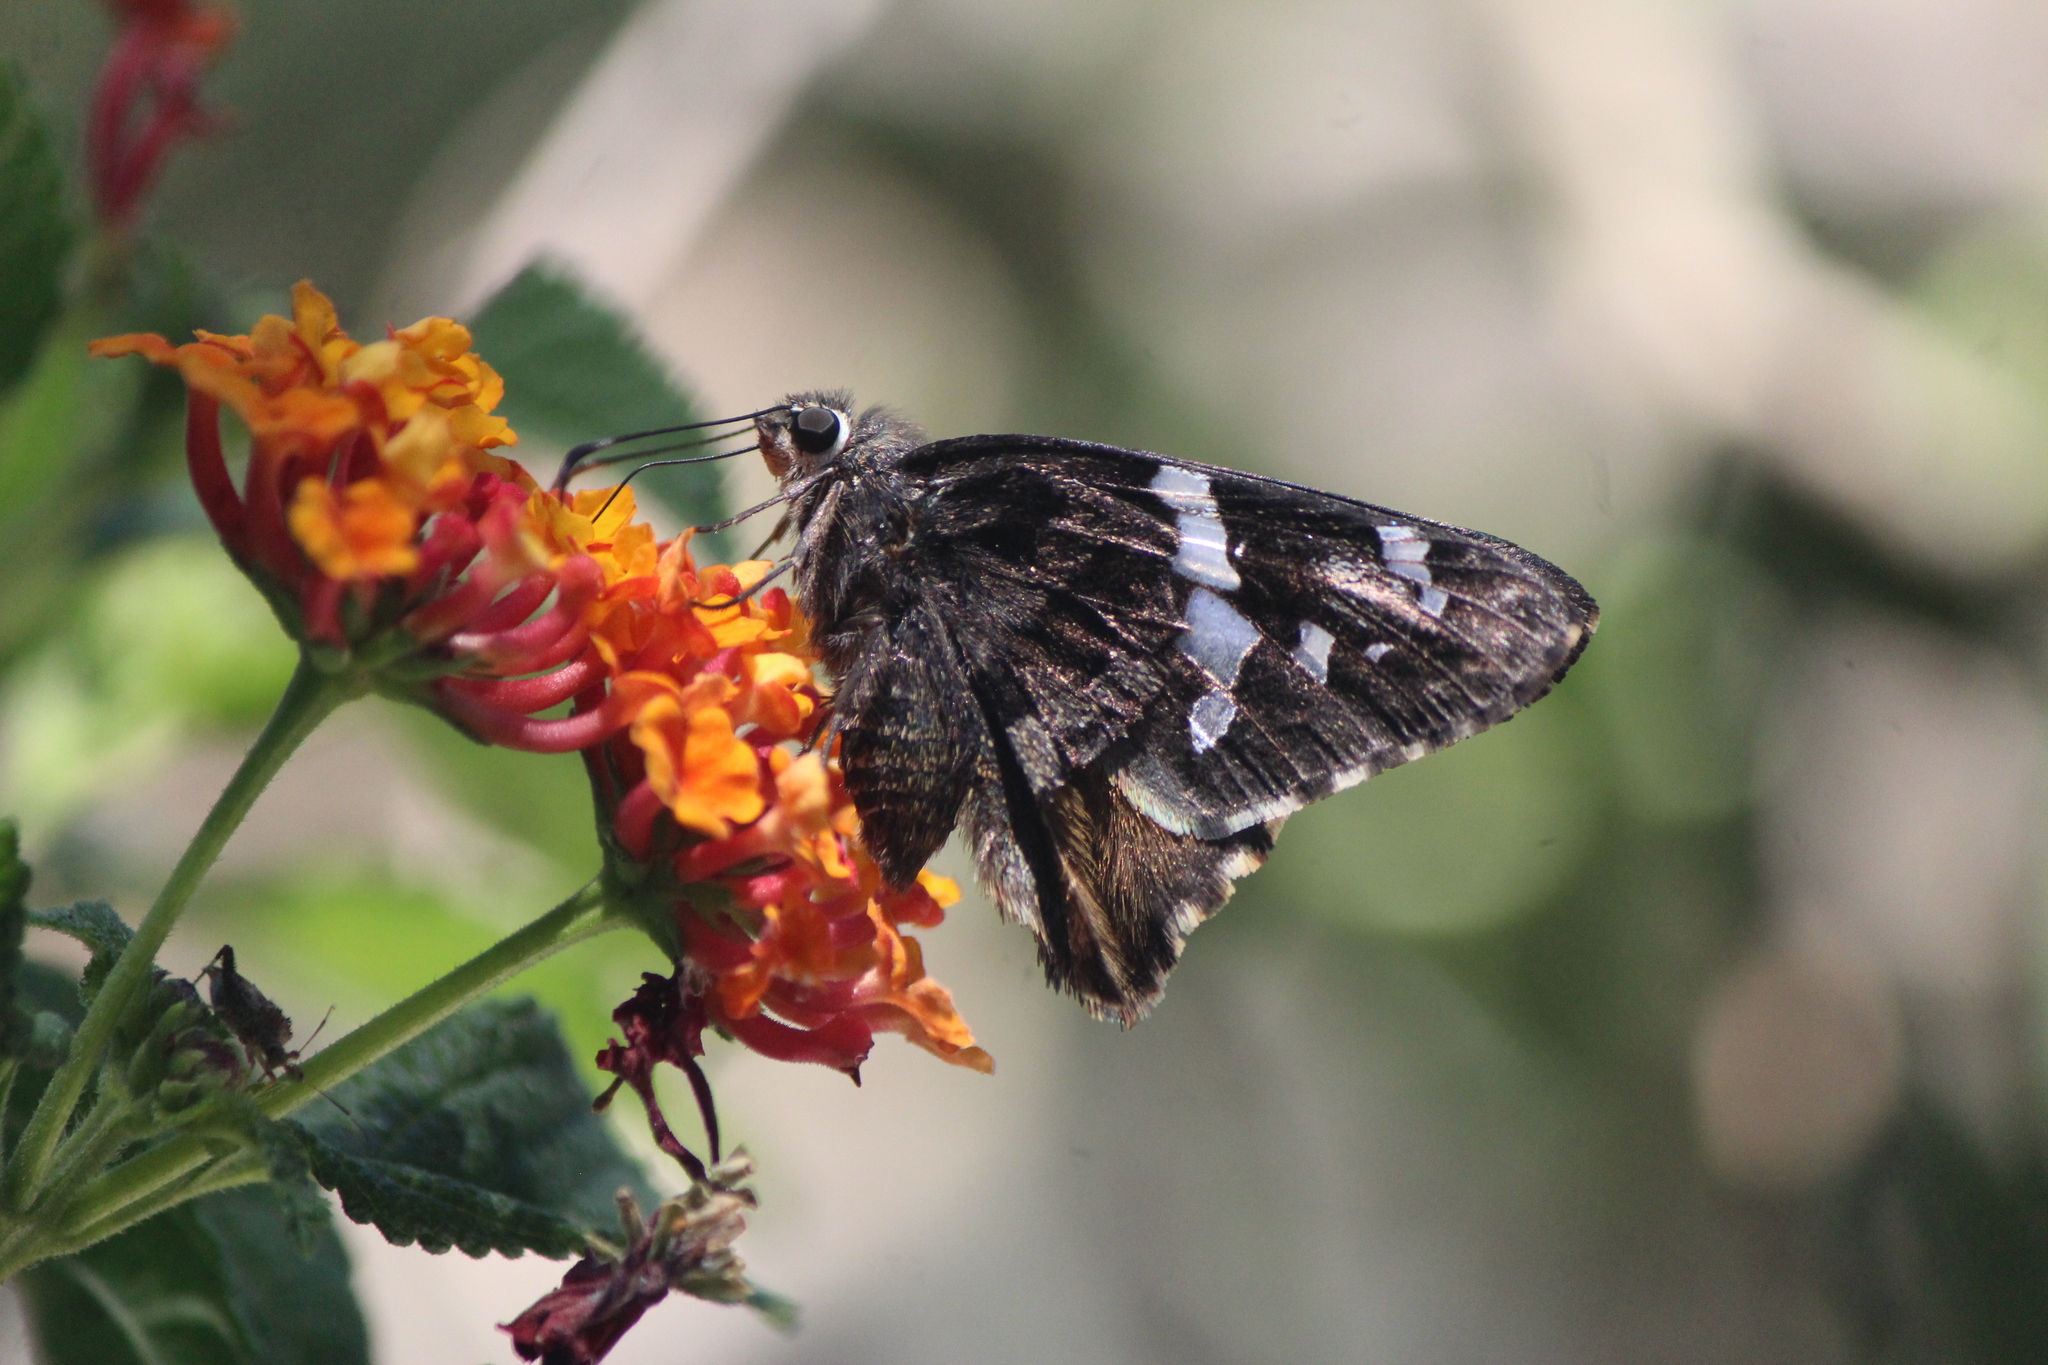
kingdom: Animalia
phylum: Arthropoda
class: Insecta
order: Lepidoptera
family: Hesperiidae
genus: Codatractus
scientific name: Codatractus arizonensis
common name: Arizona skipper
